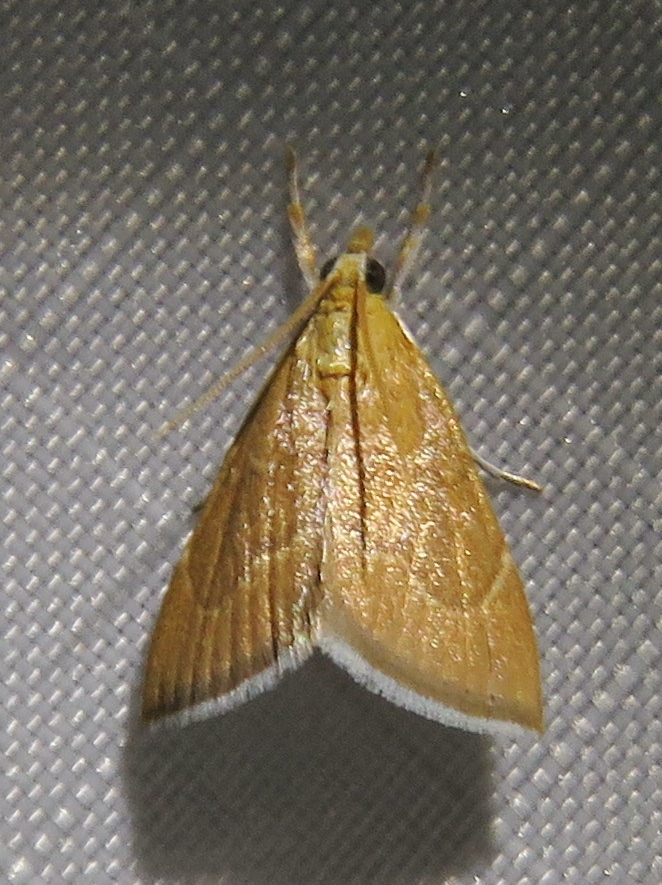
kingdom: Animalia
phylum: Arthropoda
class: Insecta
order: Lepidoptera
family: Crambidae
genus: Glaphyria
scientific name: Glaphyria invisalis
